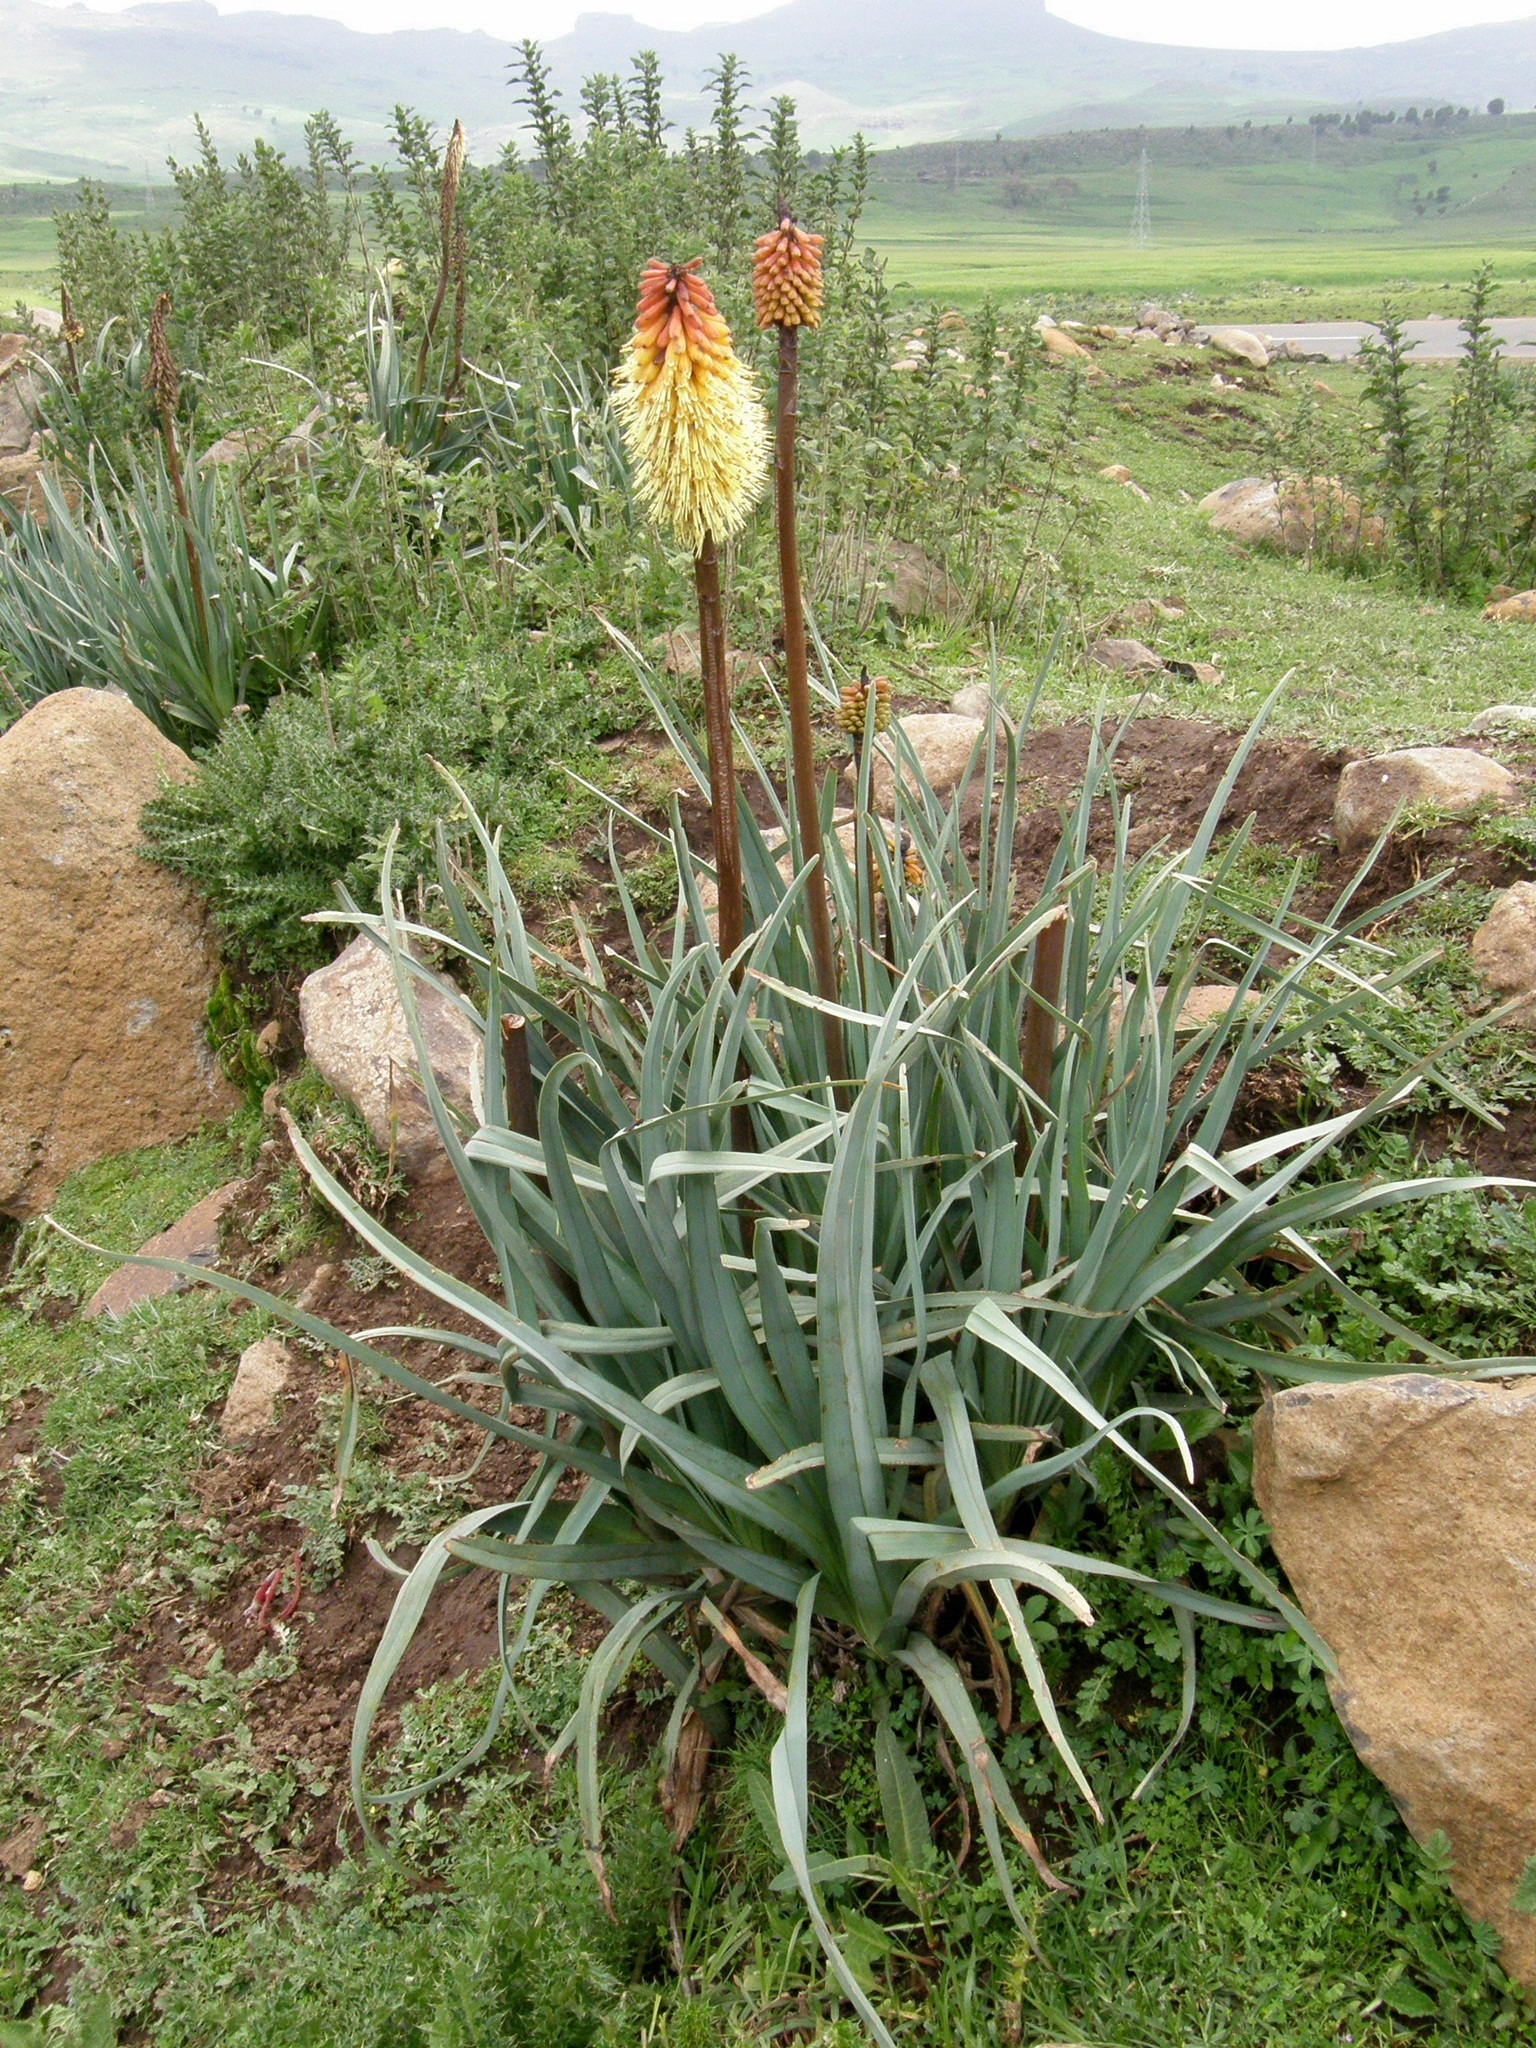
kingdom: Plantae
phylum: Tracheophyta
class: Liliopsida
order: Asparagales
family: Asphodelaceae
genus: Kniphofia
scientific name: Kniphofia foliosa
